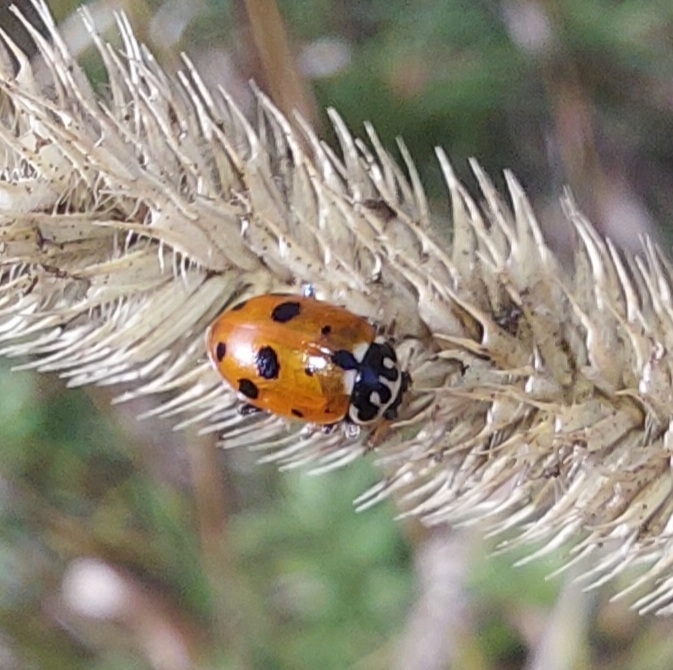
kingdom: Animalia
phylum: Arthropoda
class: Insecta
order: Coleoptera
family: Coccinellidae
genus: Hippodamia
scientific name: Hippodamia variegata
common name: Ladybird beetle
